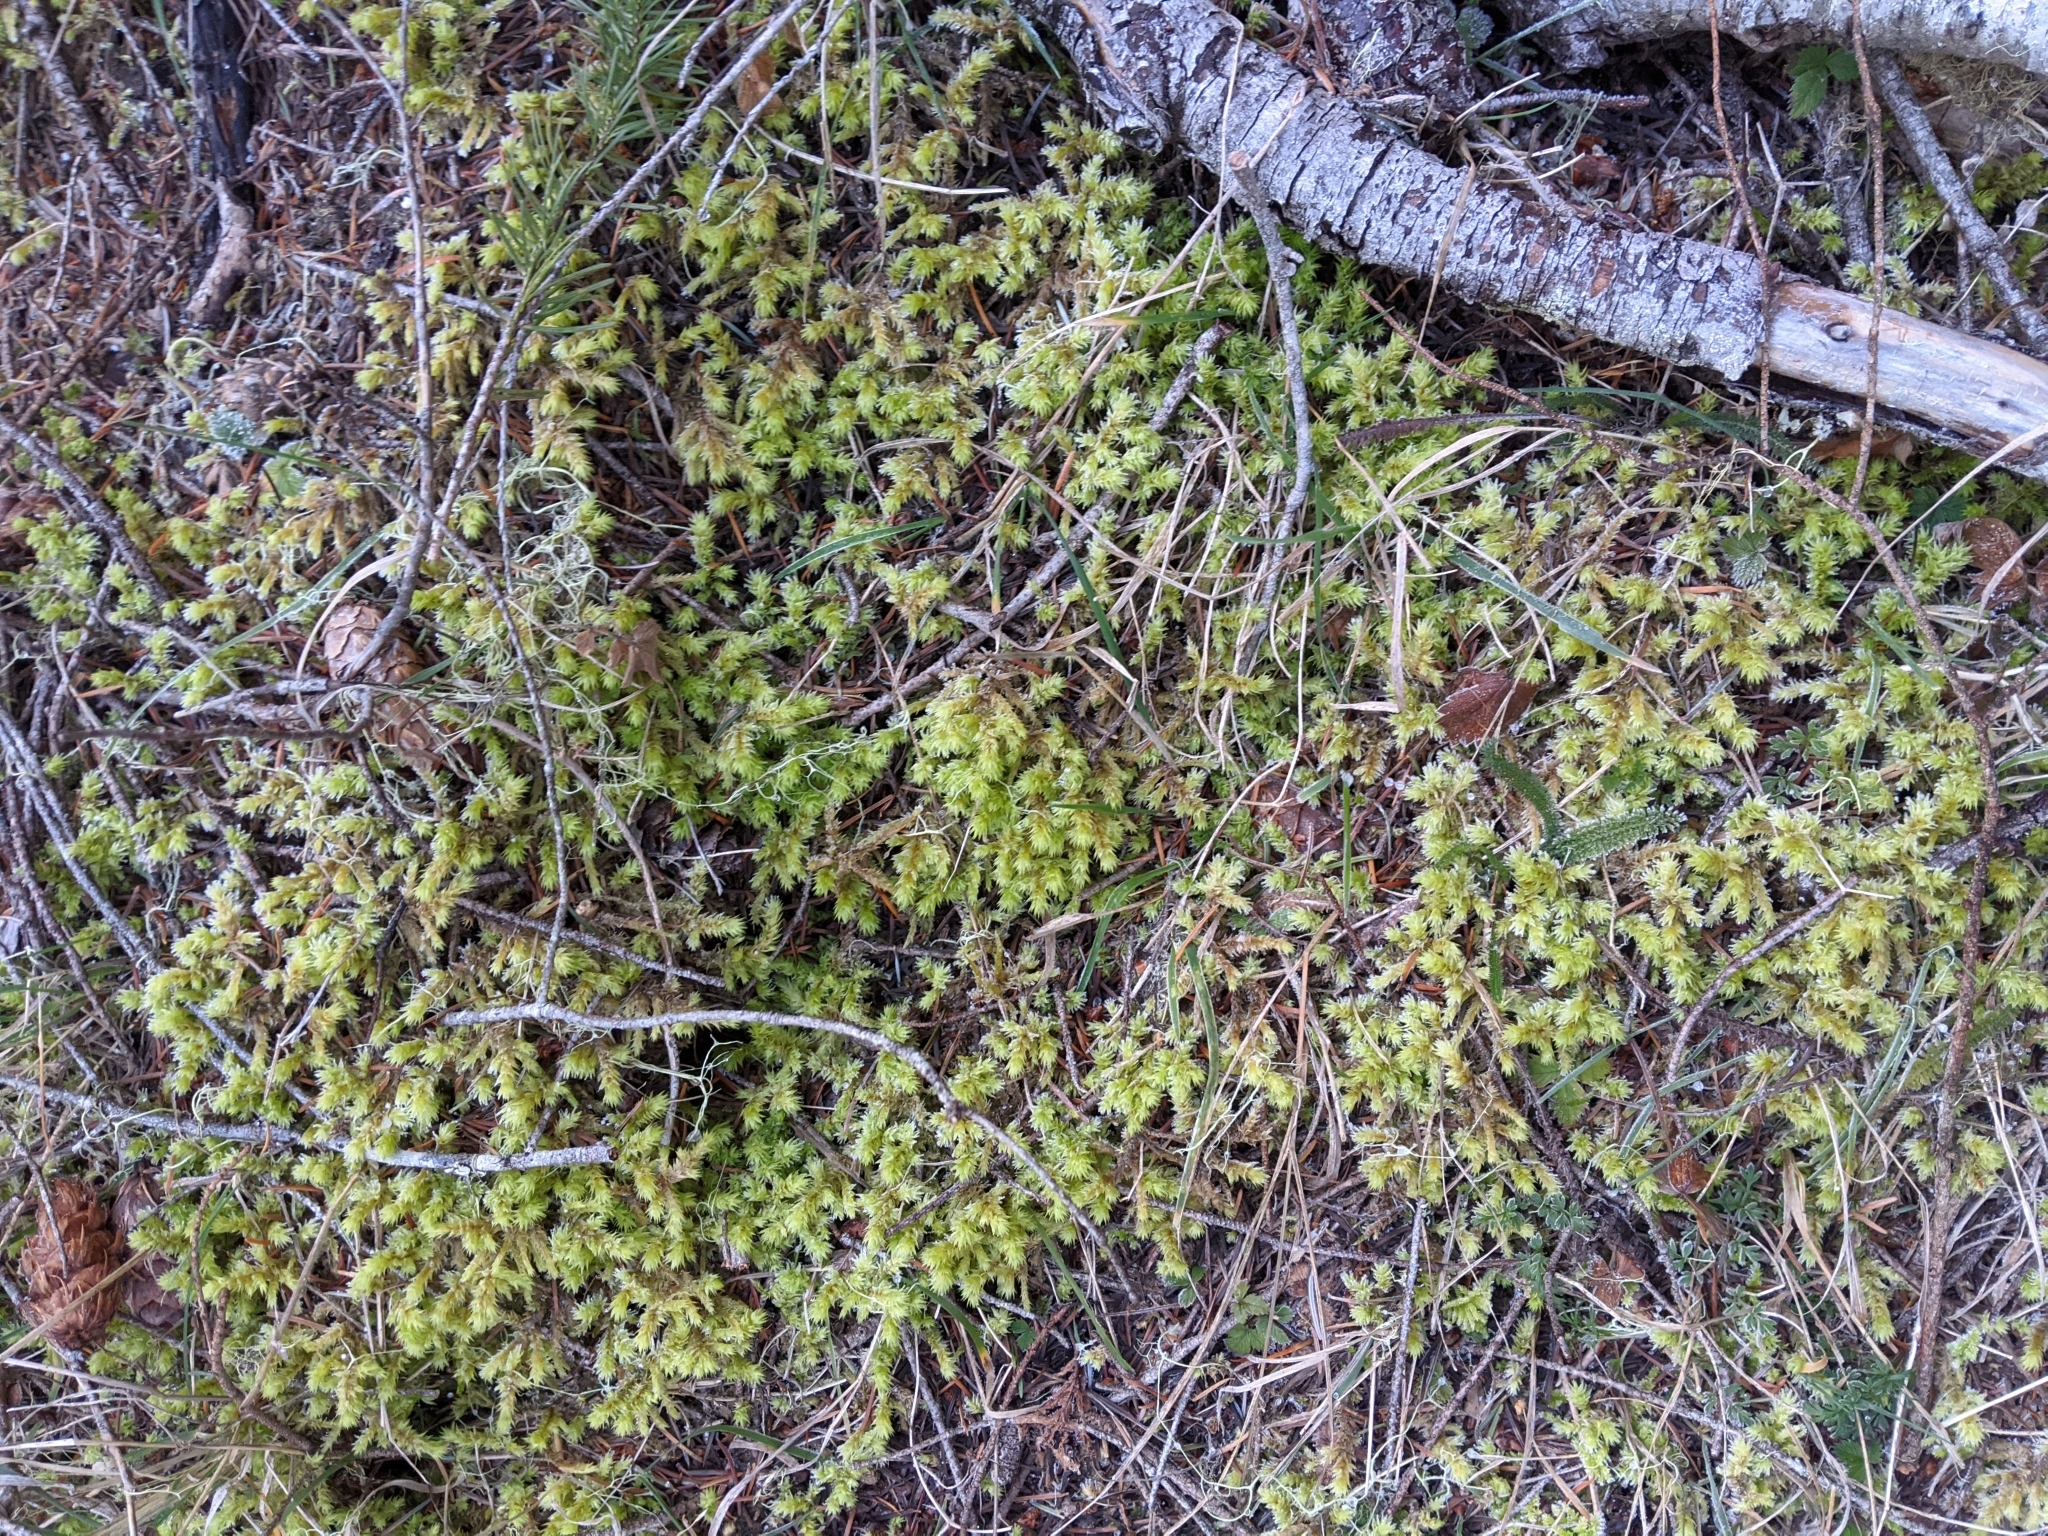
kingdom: Plantae
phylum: Bryophyta
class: Bryopsida
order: Hypnales
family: Hylocomiaceae
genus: Hylocomiadelphus
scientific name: Hylocomiadelphus triquetrus
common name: Rough goose neck moss
